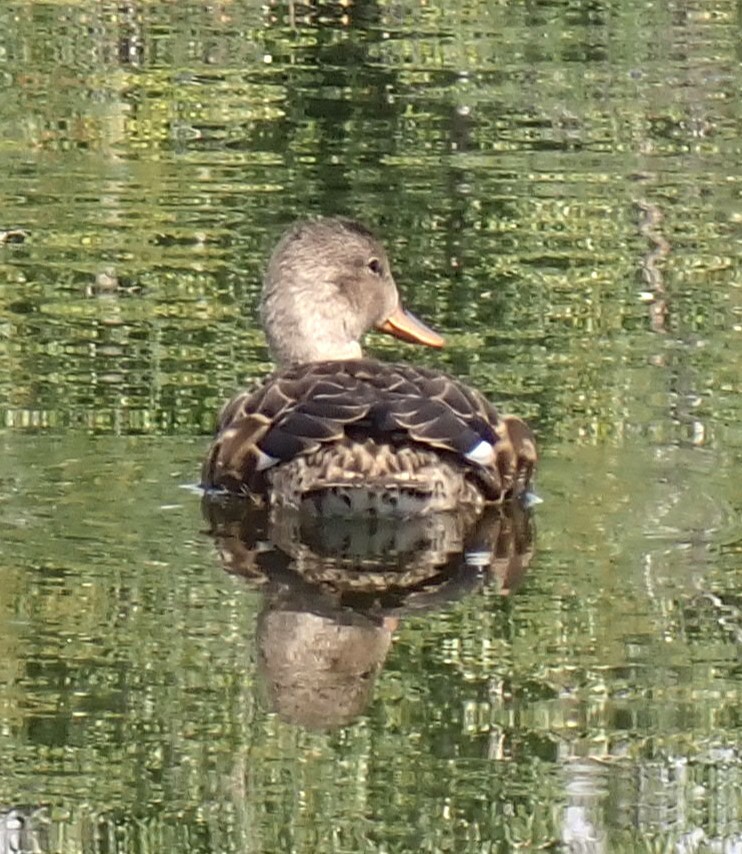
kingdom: Animalia
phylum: Chordata
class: Aves
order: Anseriformes
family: Anatidae
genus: Mareca
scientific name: Mareca strepera
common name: Gadwall
